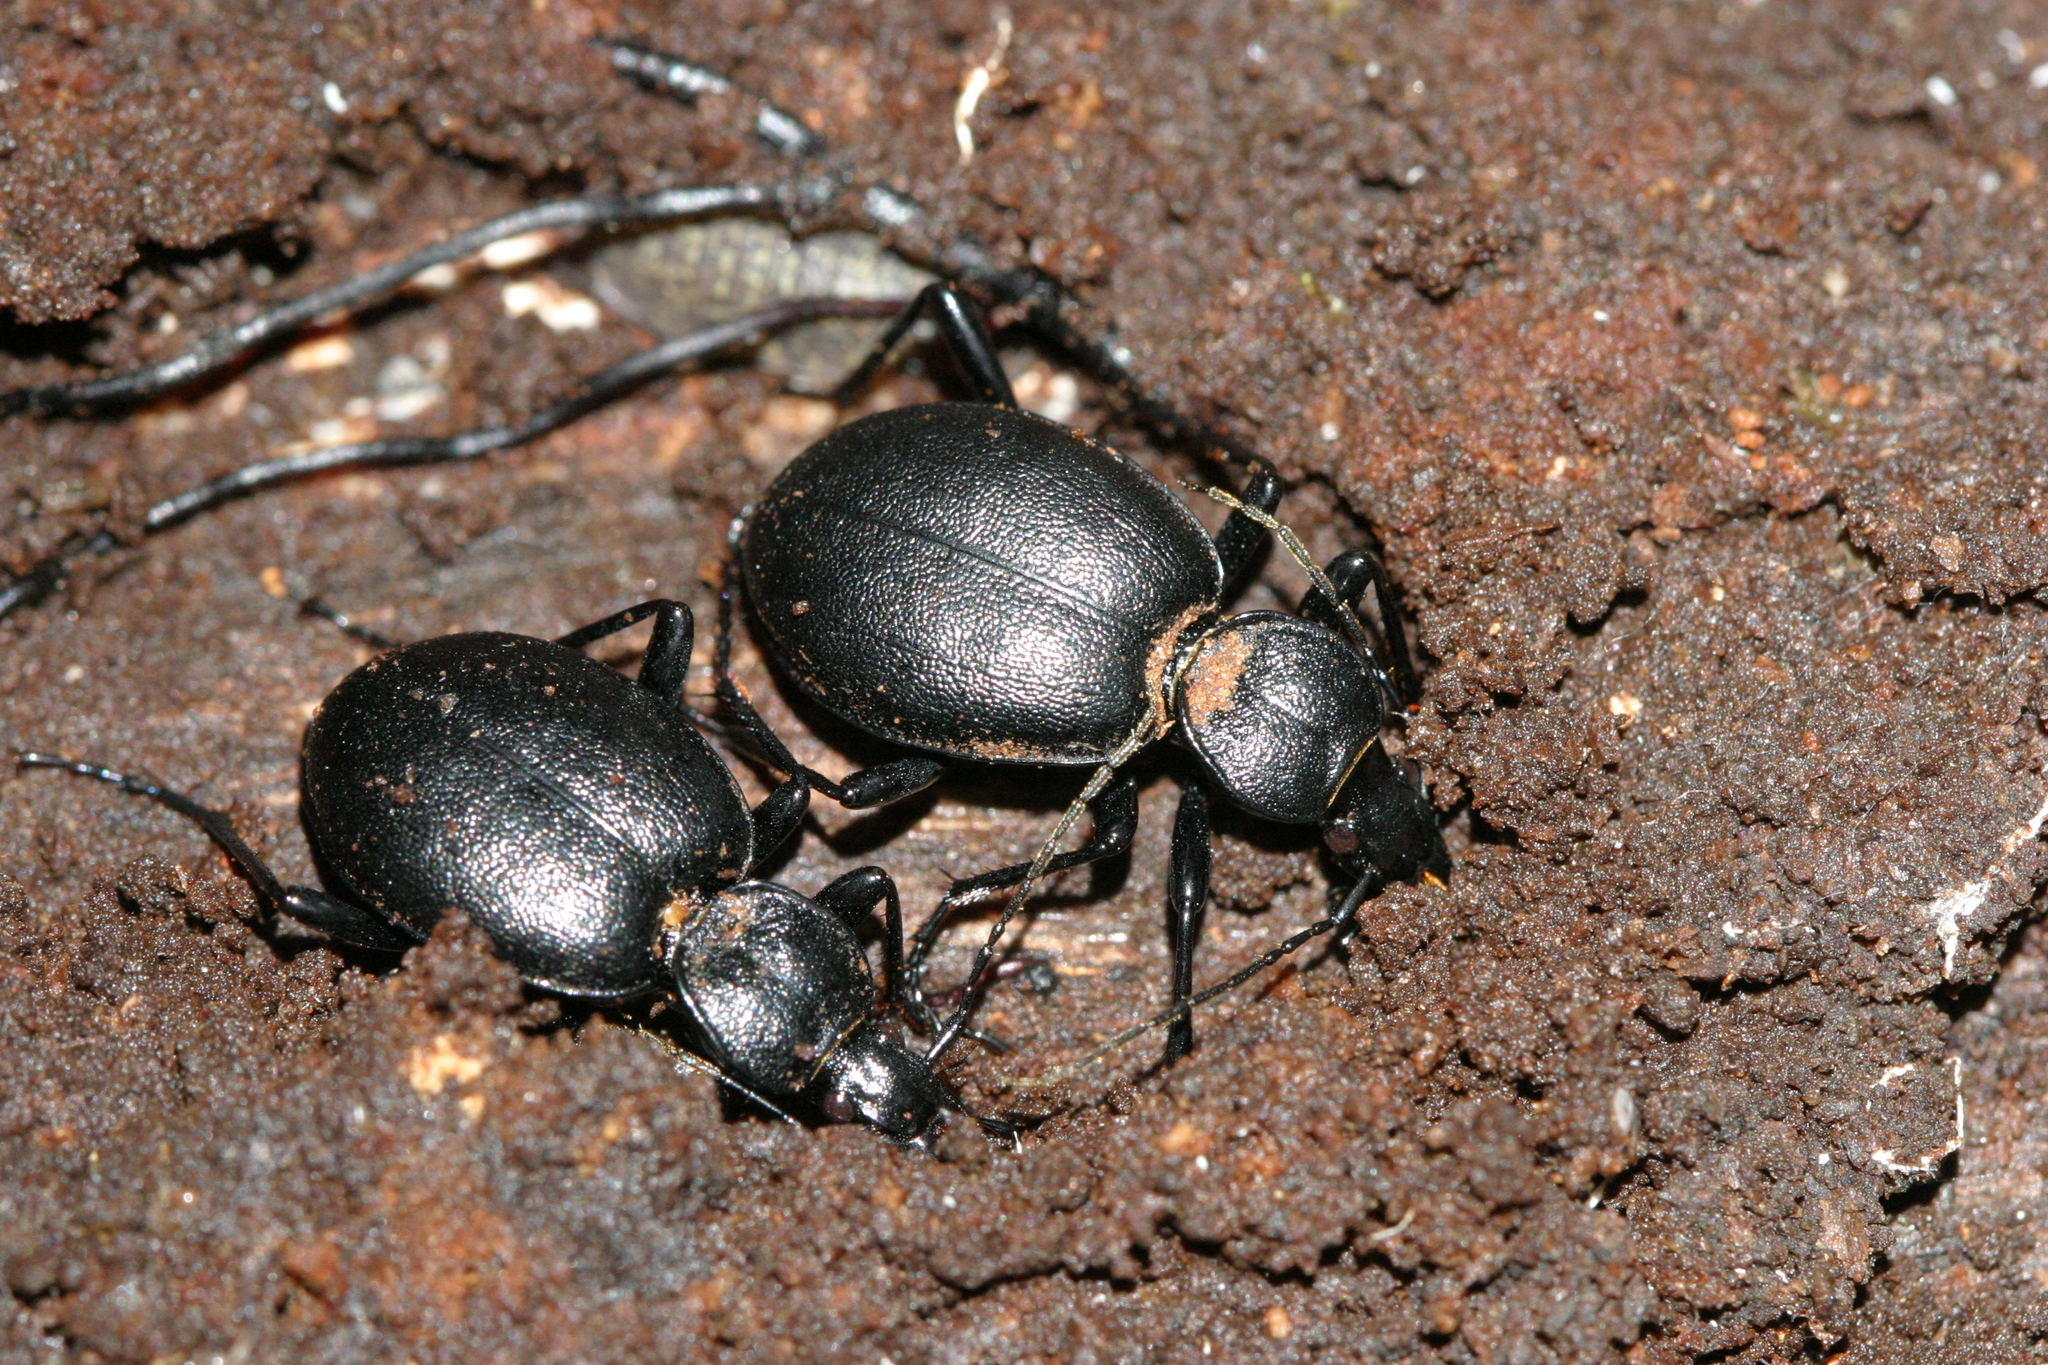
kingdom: Animalia
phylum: Arthropoda
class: Insecta
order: Coleoptera
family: Carabidae
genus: Cychrus
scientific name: Cychrus caraboides
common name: Snail hunter
